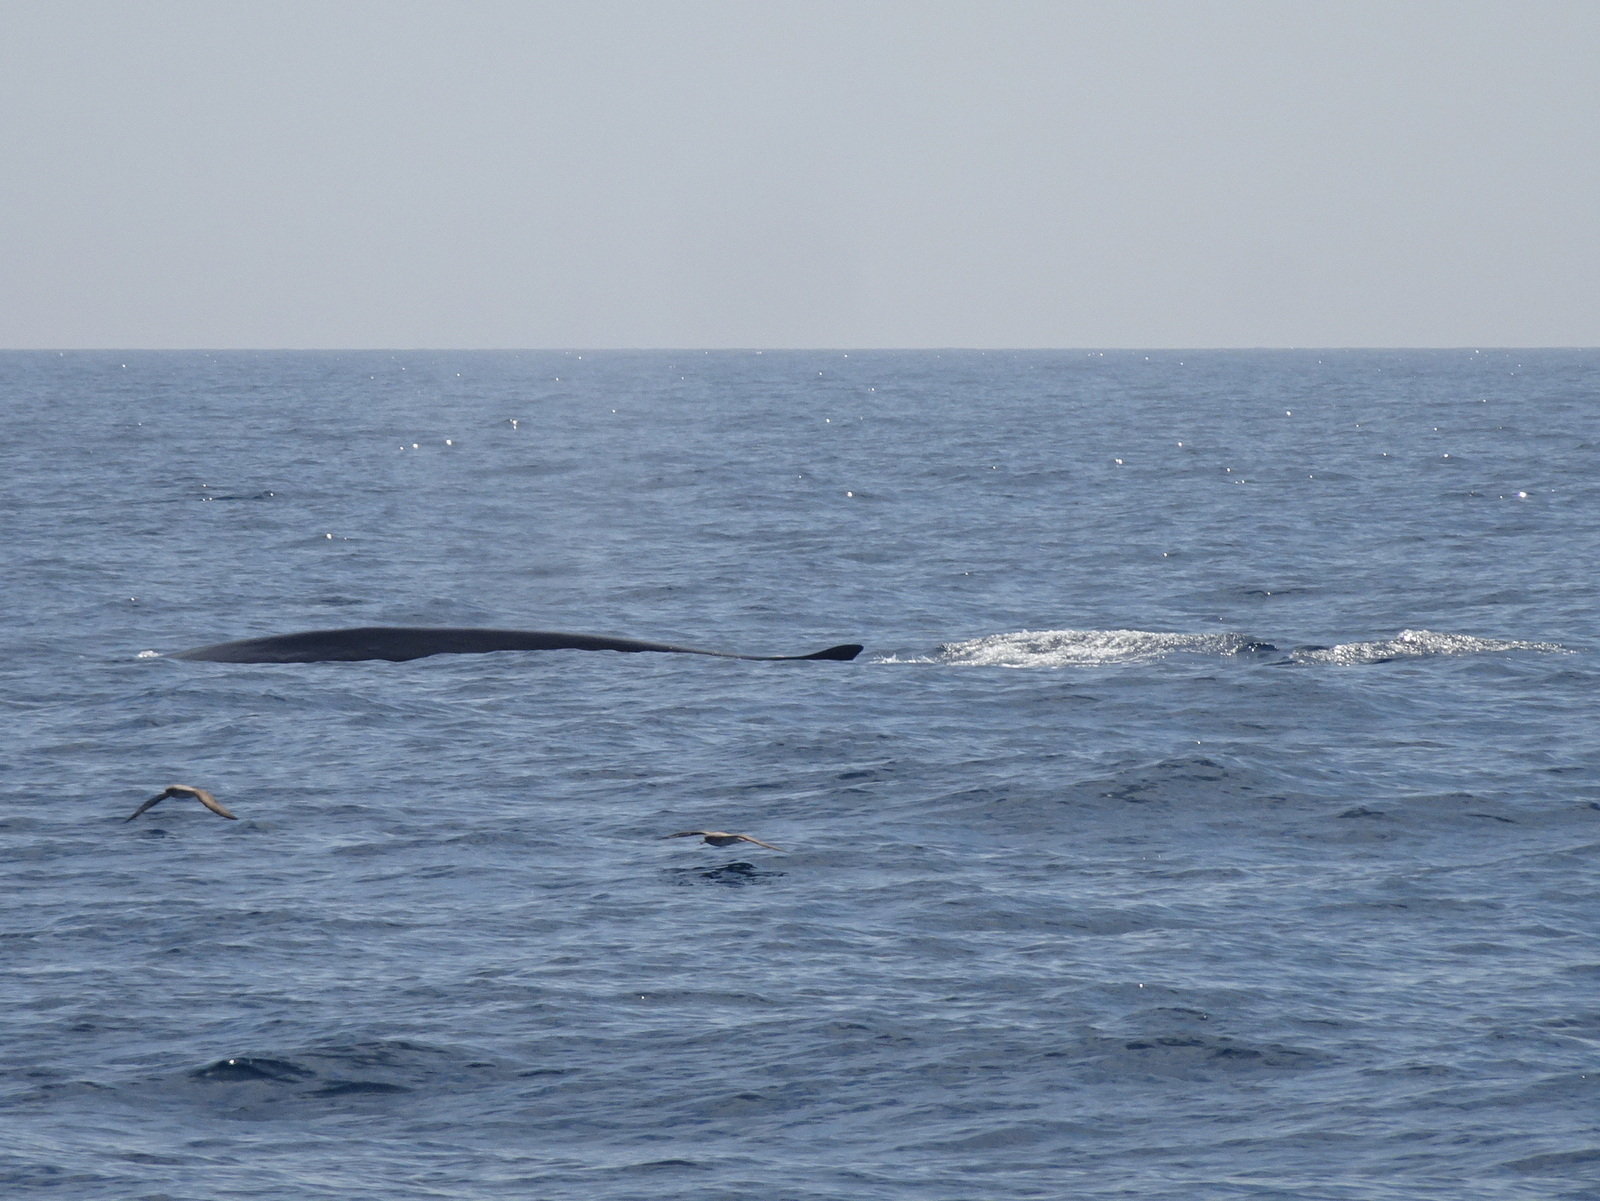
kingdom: Animalia
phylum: Chordata
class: Mammalia
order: Cetacea
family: Balaenopteridae
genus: Balaenoptera
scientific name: Balaenoptera physalus
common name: Fin whale
